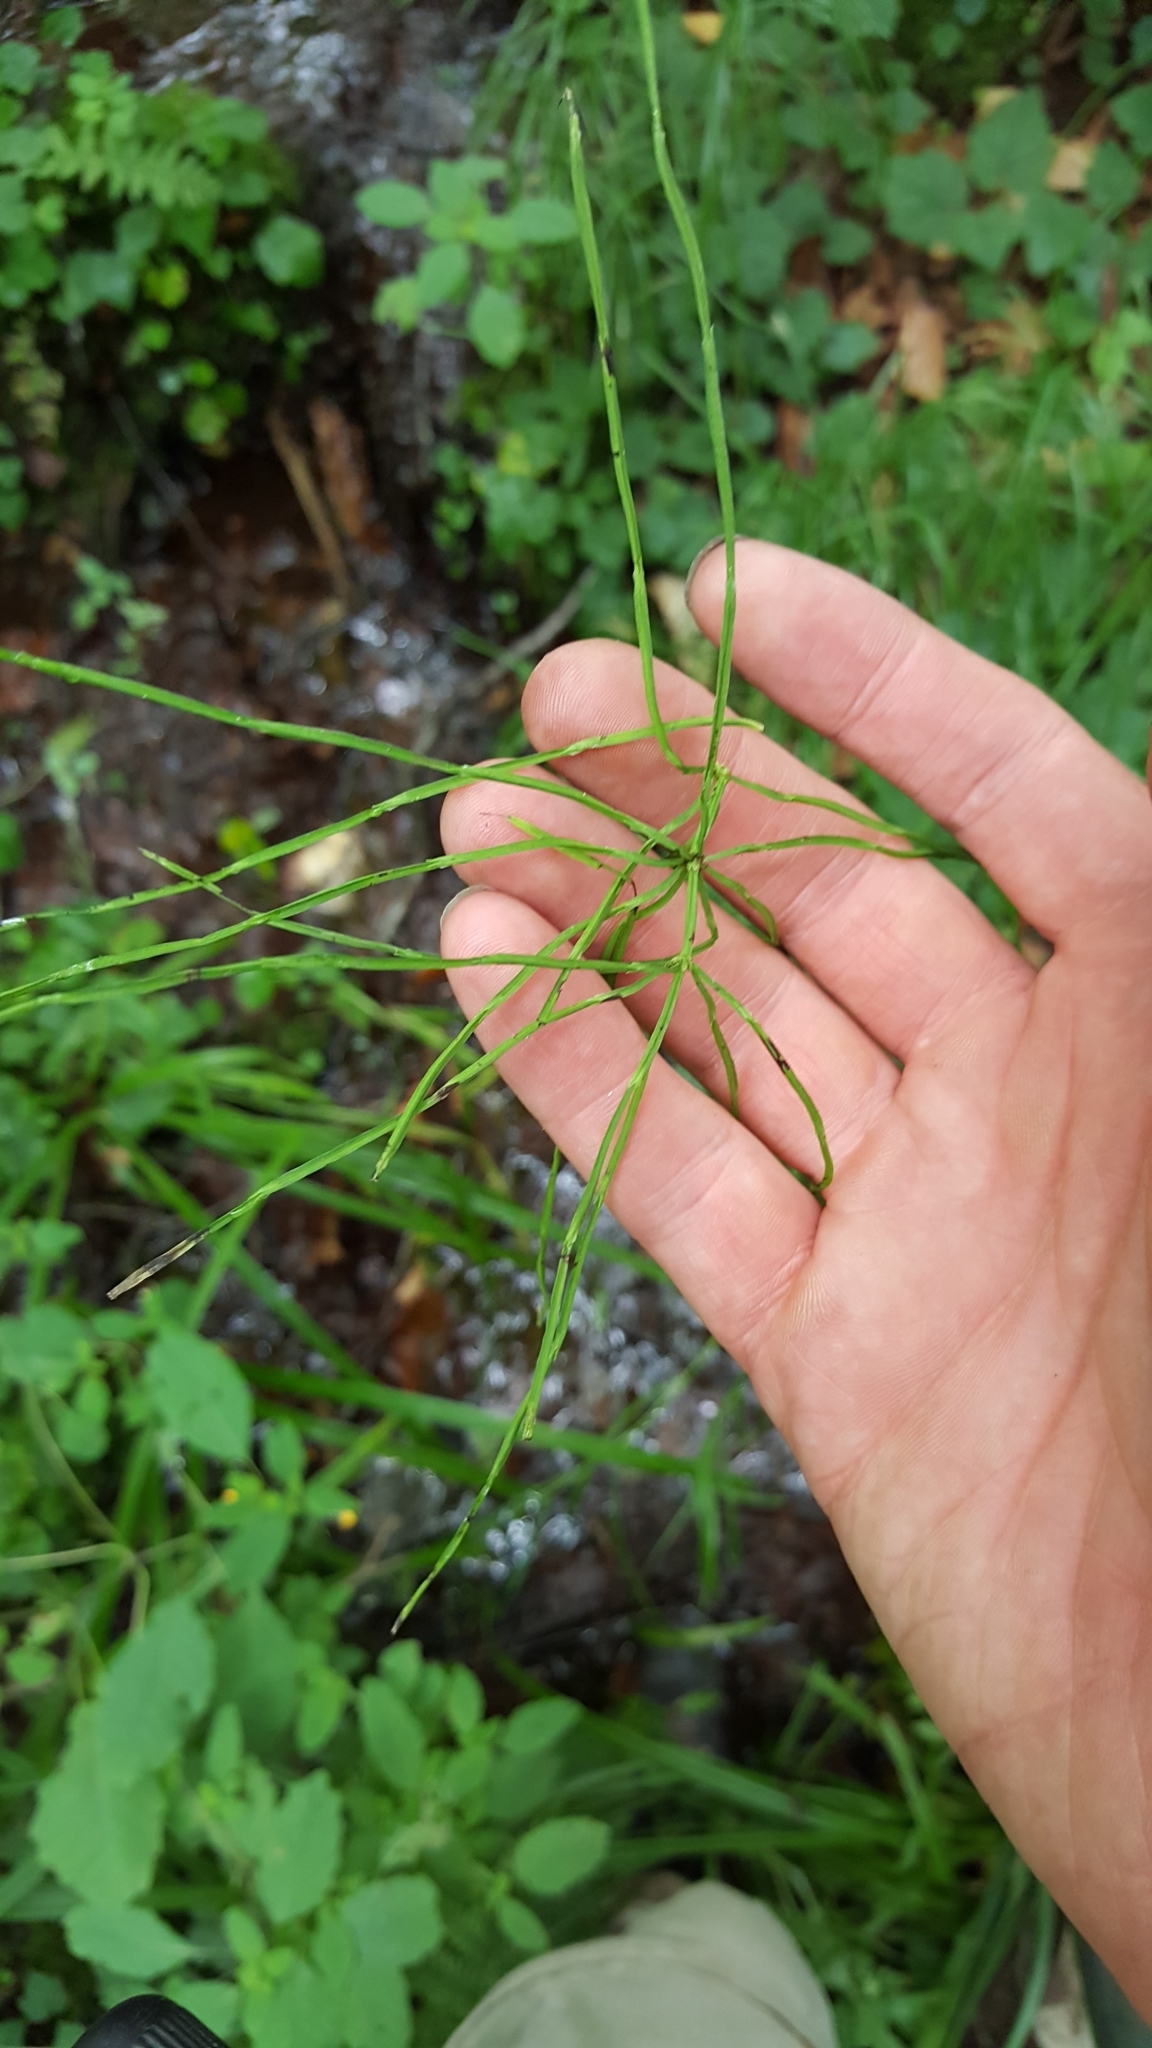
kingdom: Plantae
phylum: Tracheophyta
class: Polypodiopsida
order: Equisetales
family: Equisetaceae
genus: Equisetum
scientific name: Equisetum arvense
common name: Field horsetail
